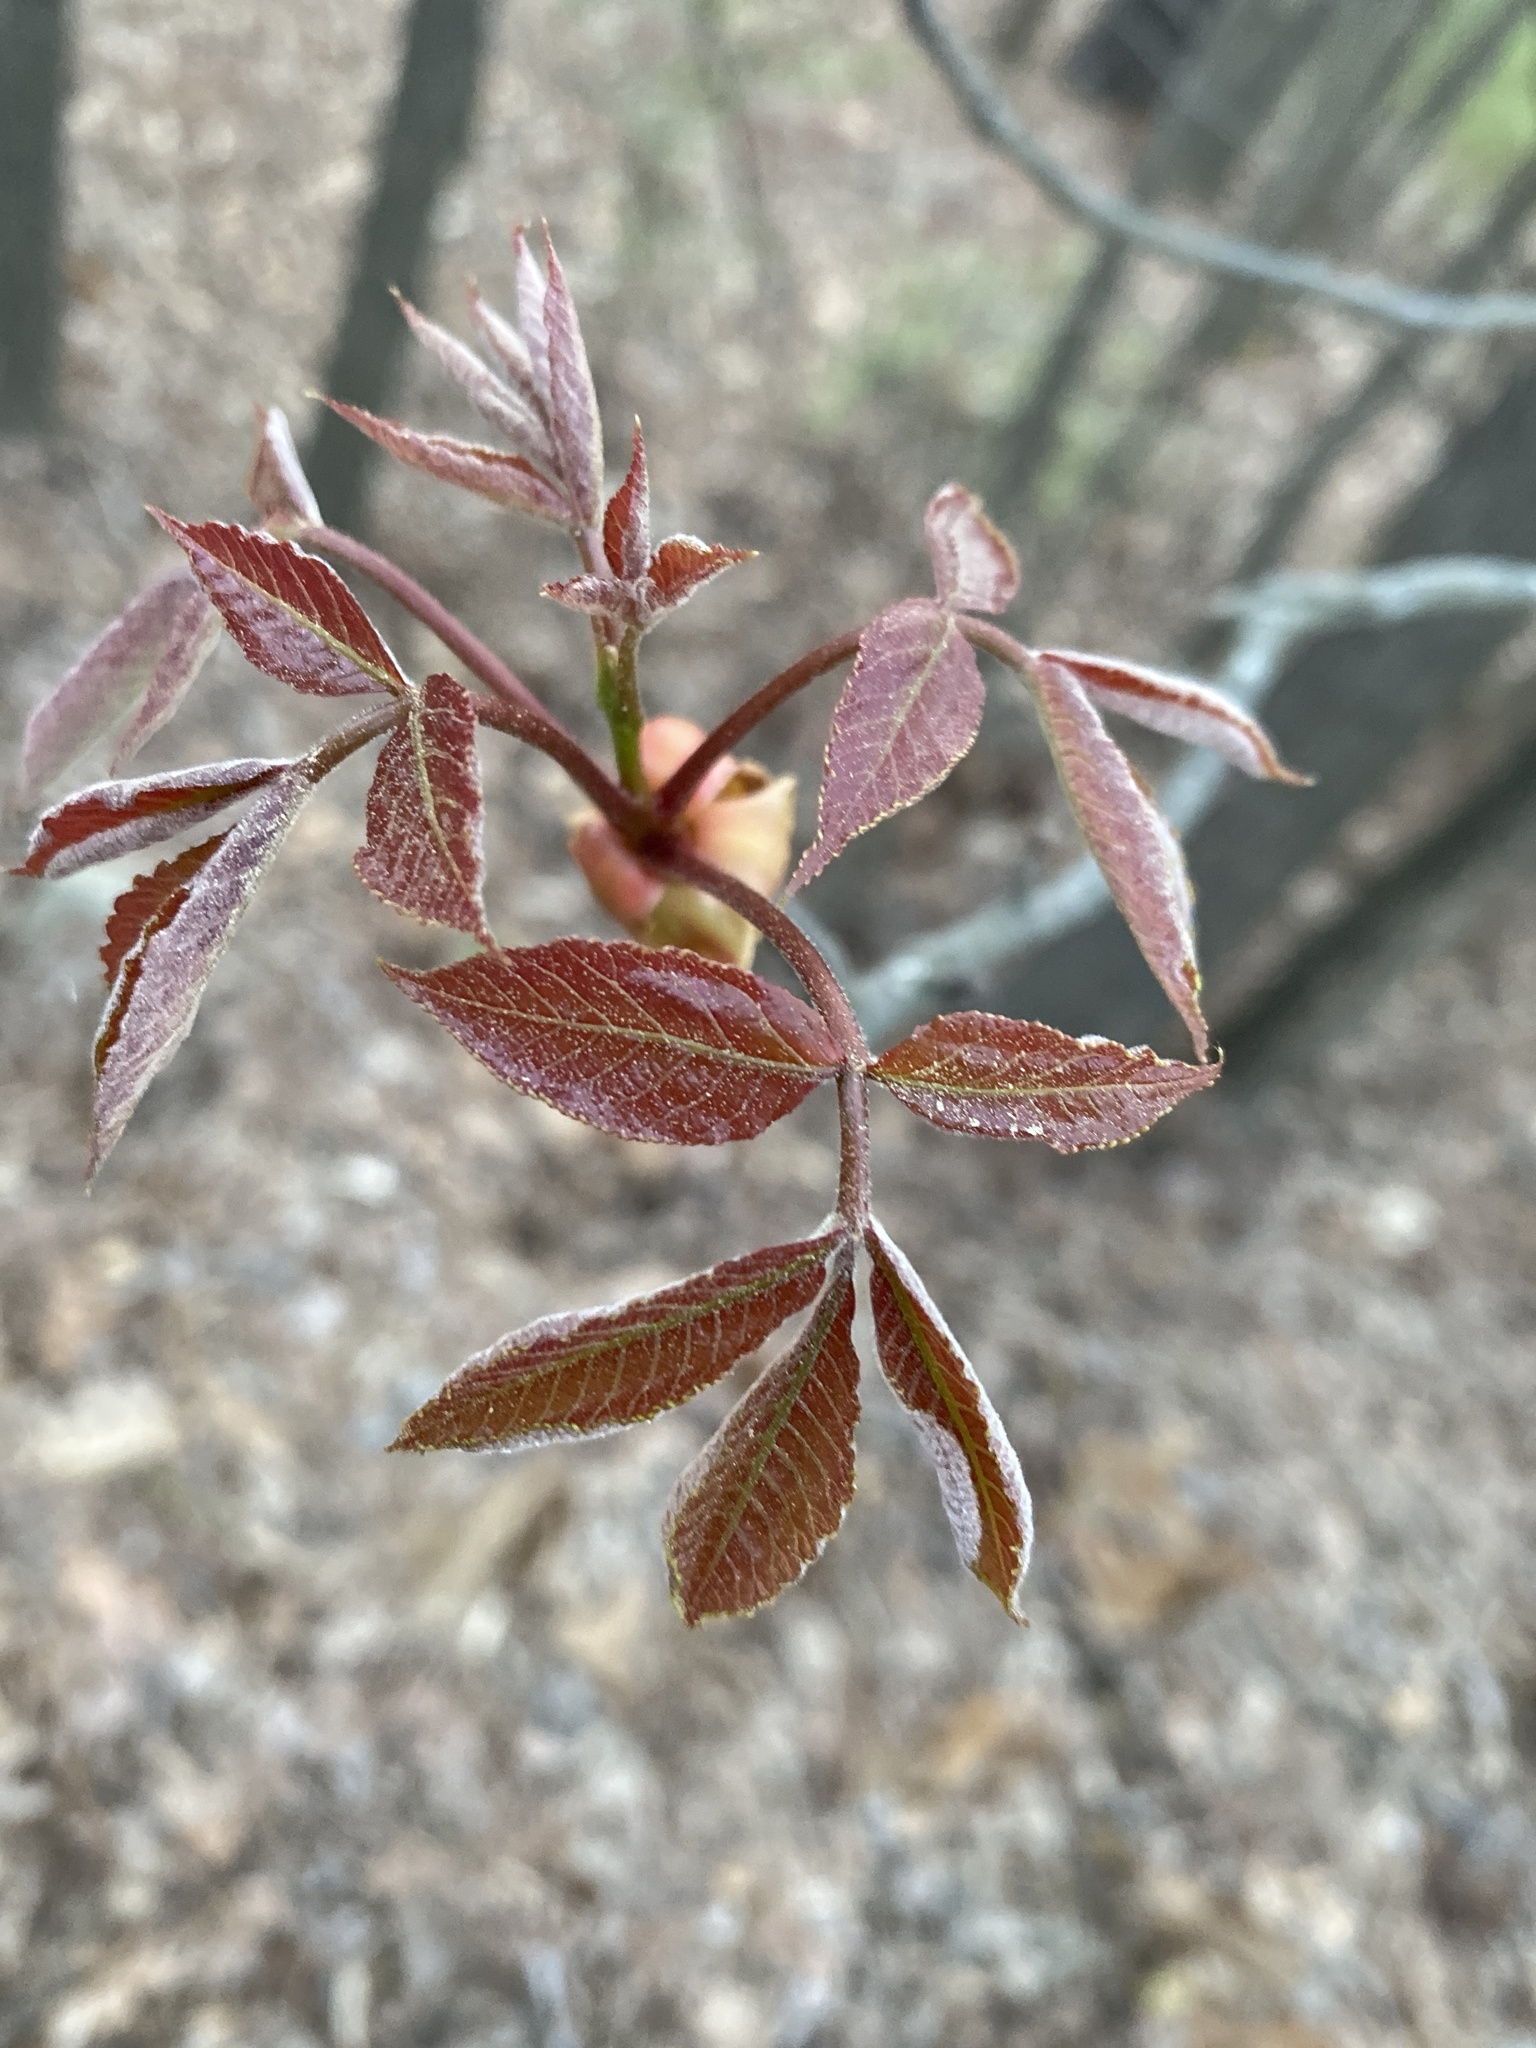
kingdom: Plantae
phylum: Tracheophyta
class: Magnoliopsida
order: Fagales
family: Juglandaceae
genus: Carya
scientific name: Carya glabra
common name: Pignut hickory
